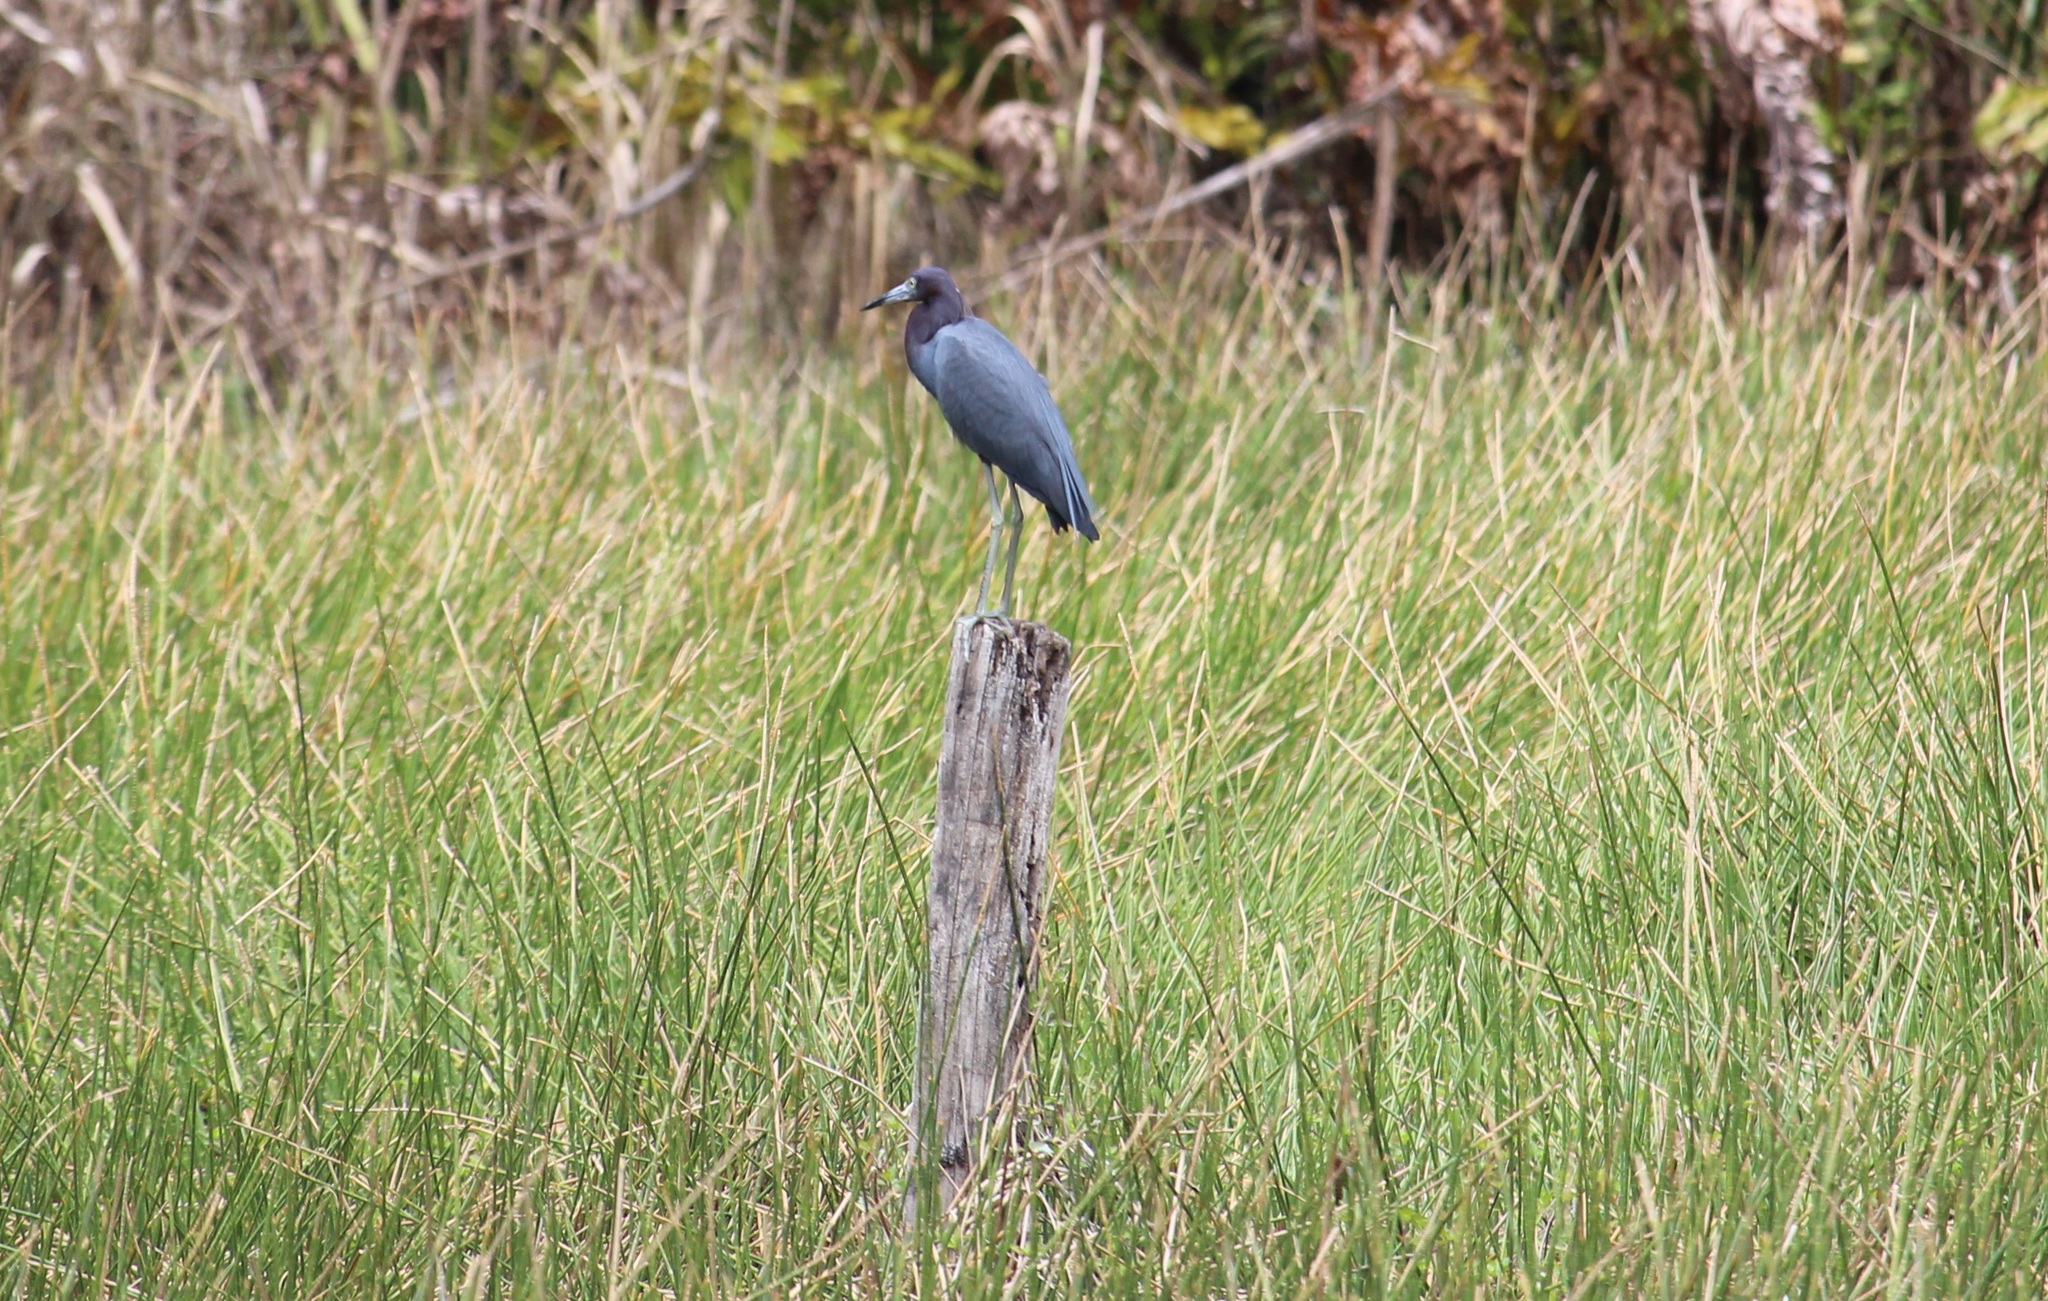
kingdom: Animalia
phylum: Chordata
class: Aves
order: Pelecaniformes
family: Ardeidae
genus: Egretta
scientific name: Egretta caerulea
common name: Little blue heron
